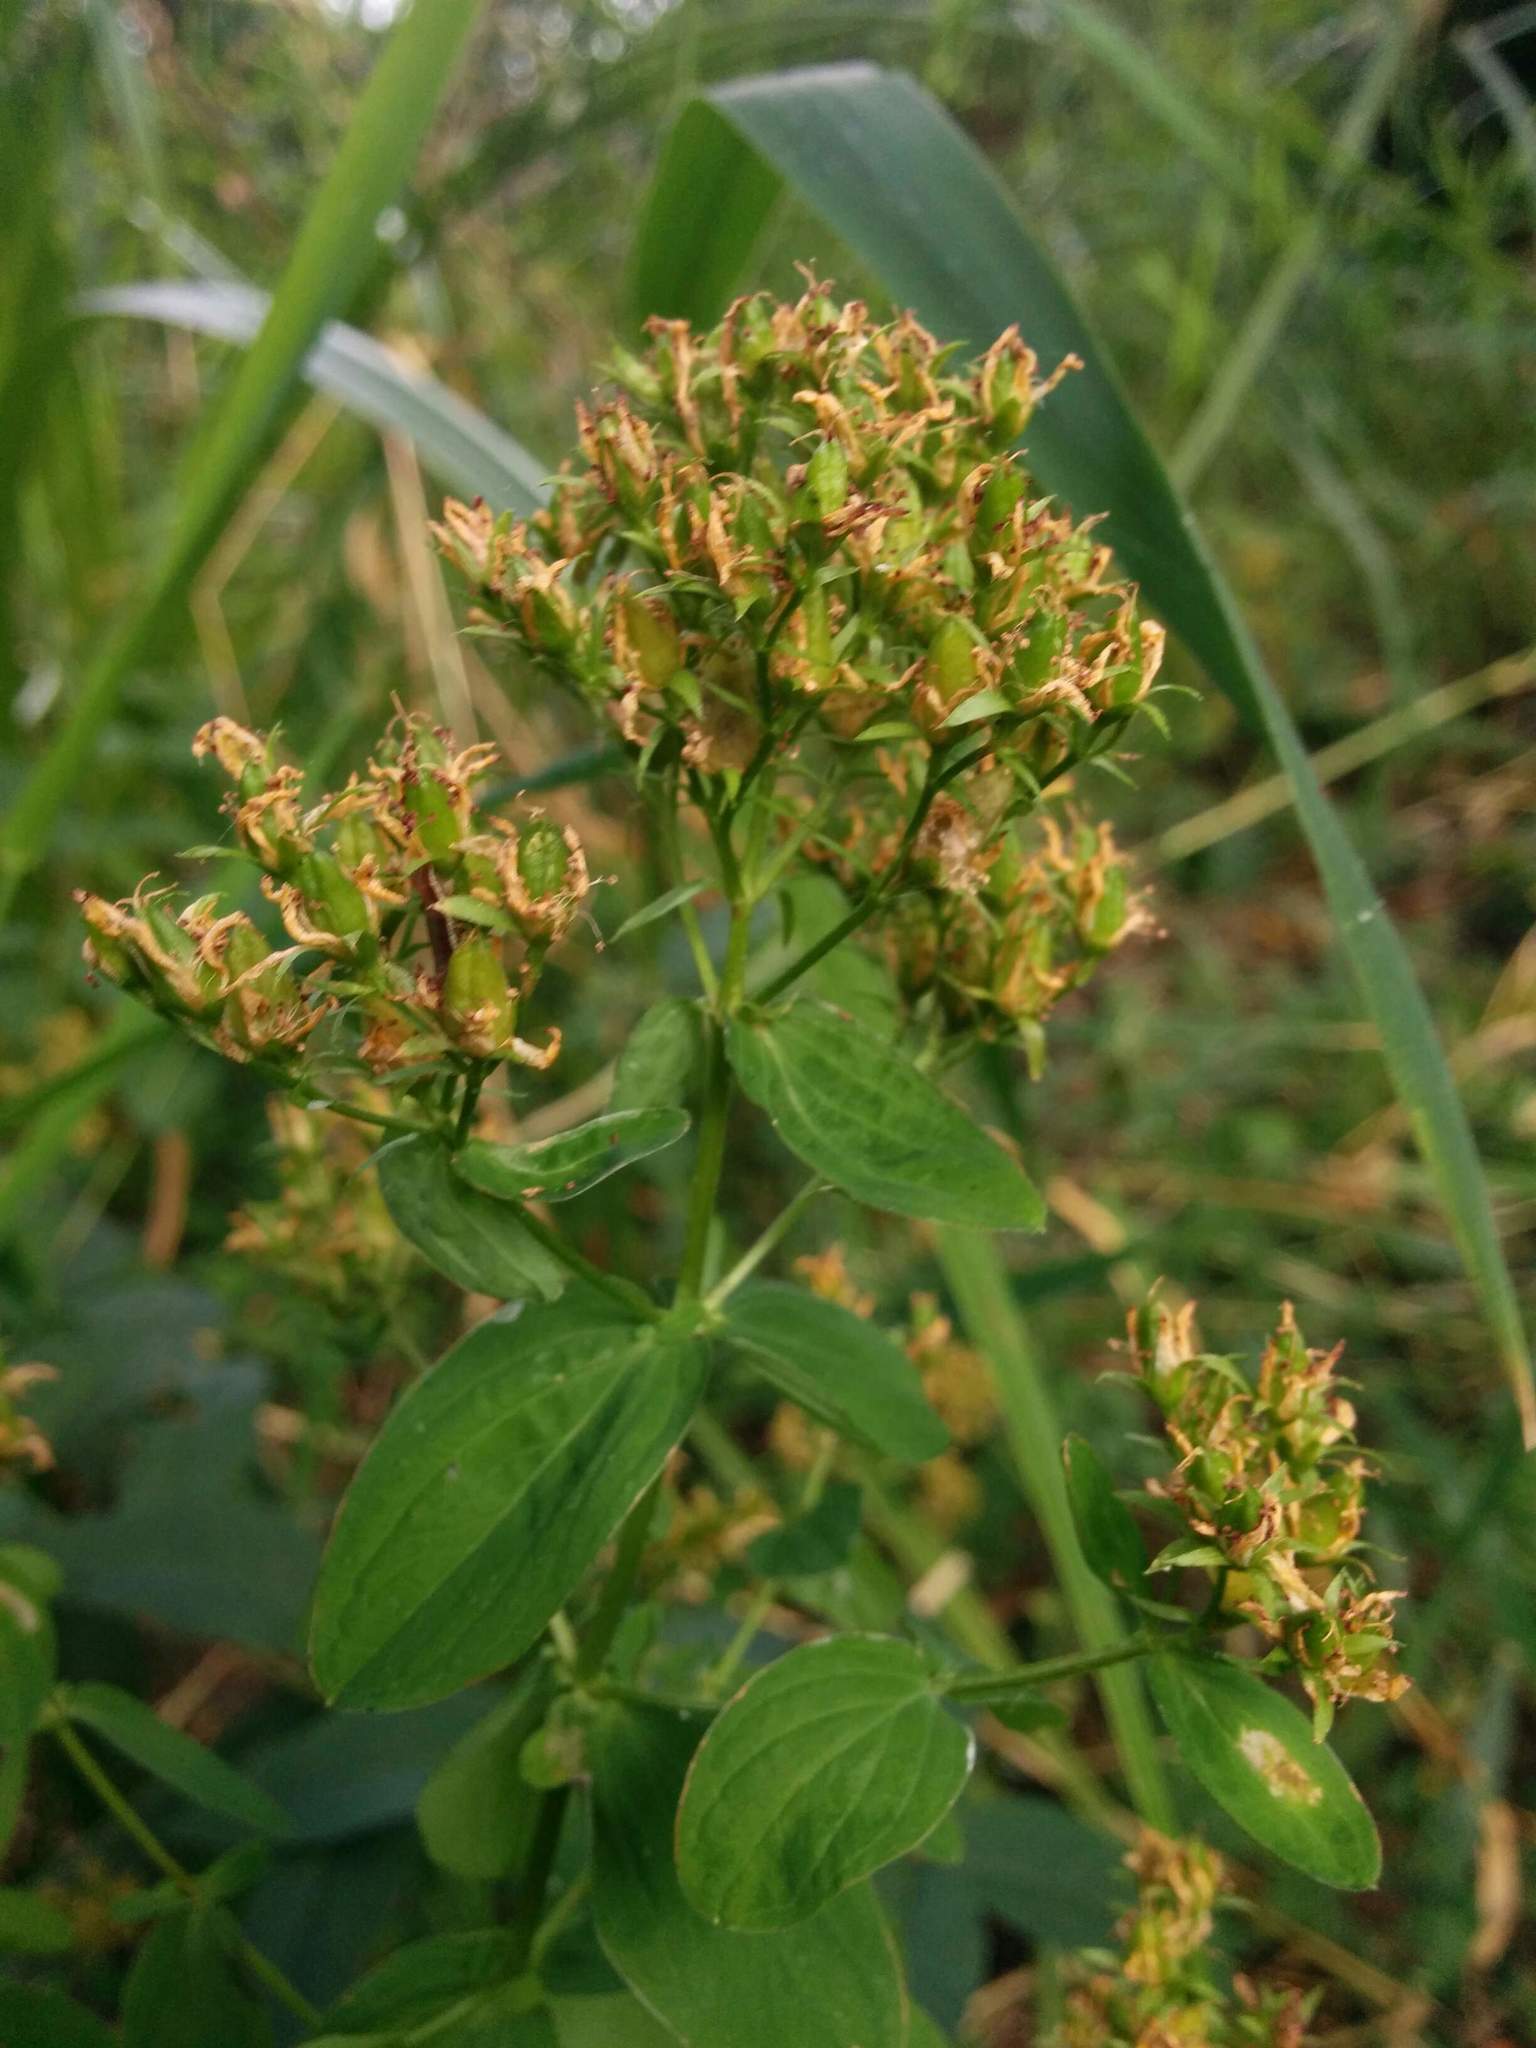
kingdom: Plantae
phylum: Tracheophyta
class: Magnoliopsida
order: Malpighiales
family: Hypericaceae
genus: Hypericum
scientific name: Hypericum tetrapterum
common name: Square-stalked st. john's-wort
